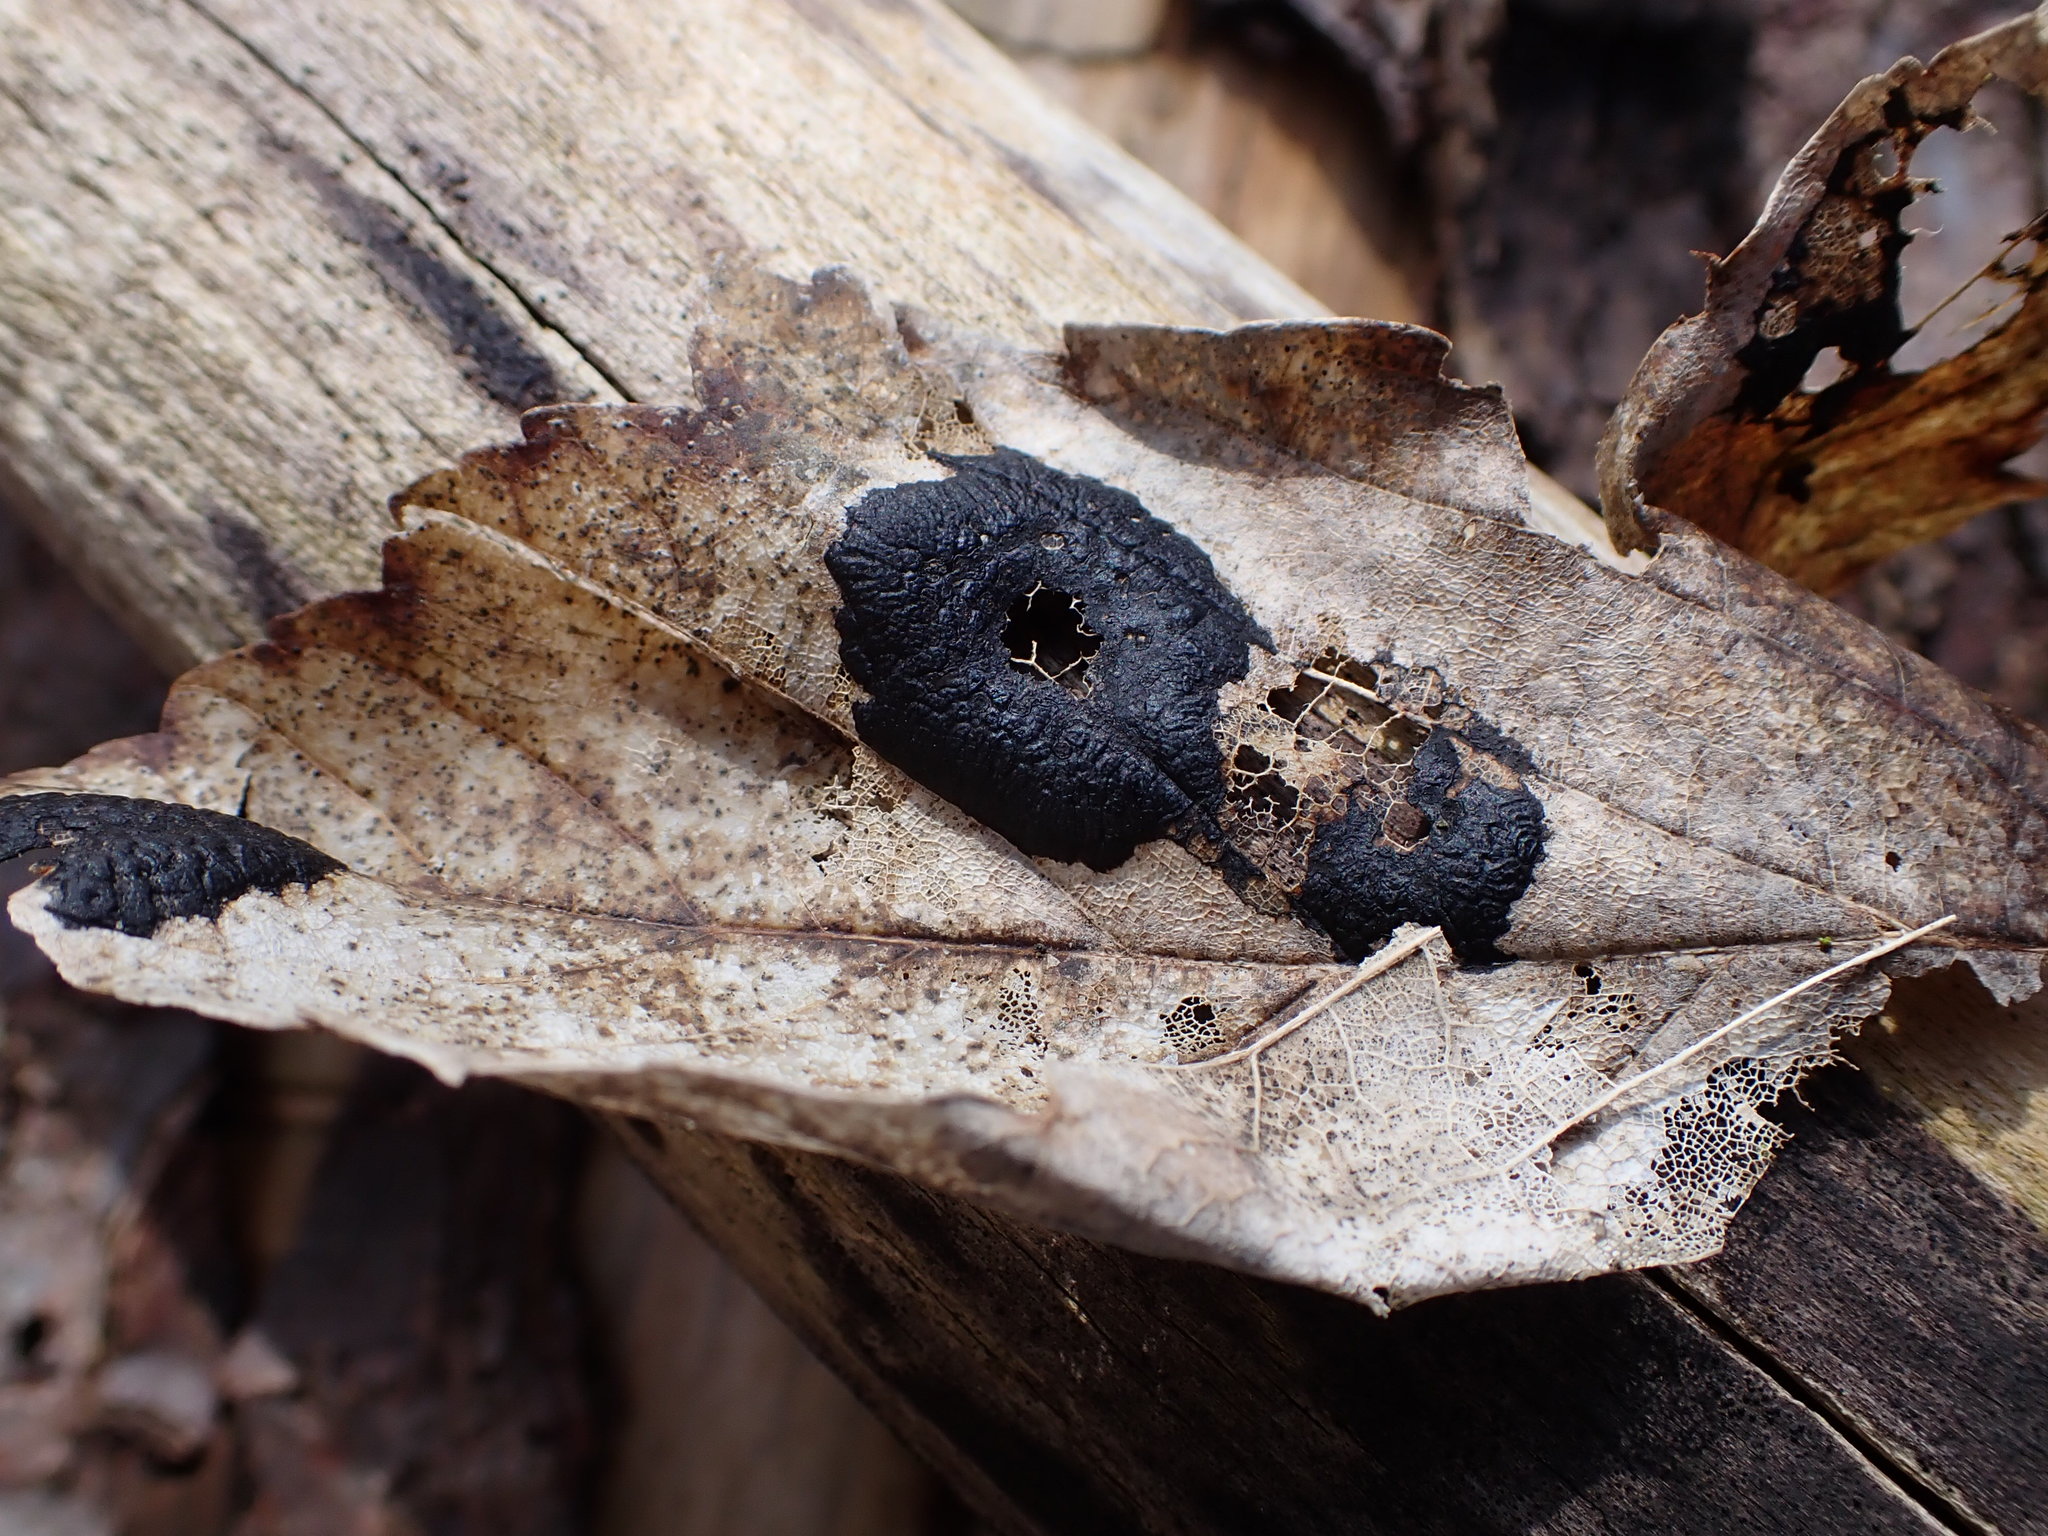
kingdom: Fungi
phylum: Ascomycota
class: Leotiomycetes
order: Rhytismatales
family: Rhytismataceae
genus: Rhytisma
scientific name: Rhytisma acerinum
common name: European tar spot
